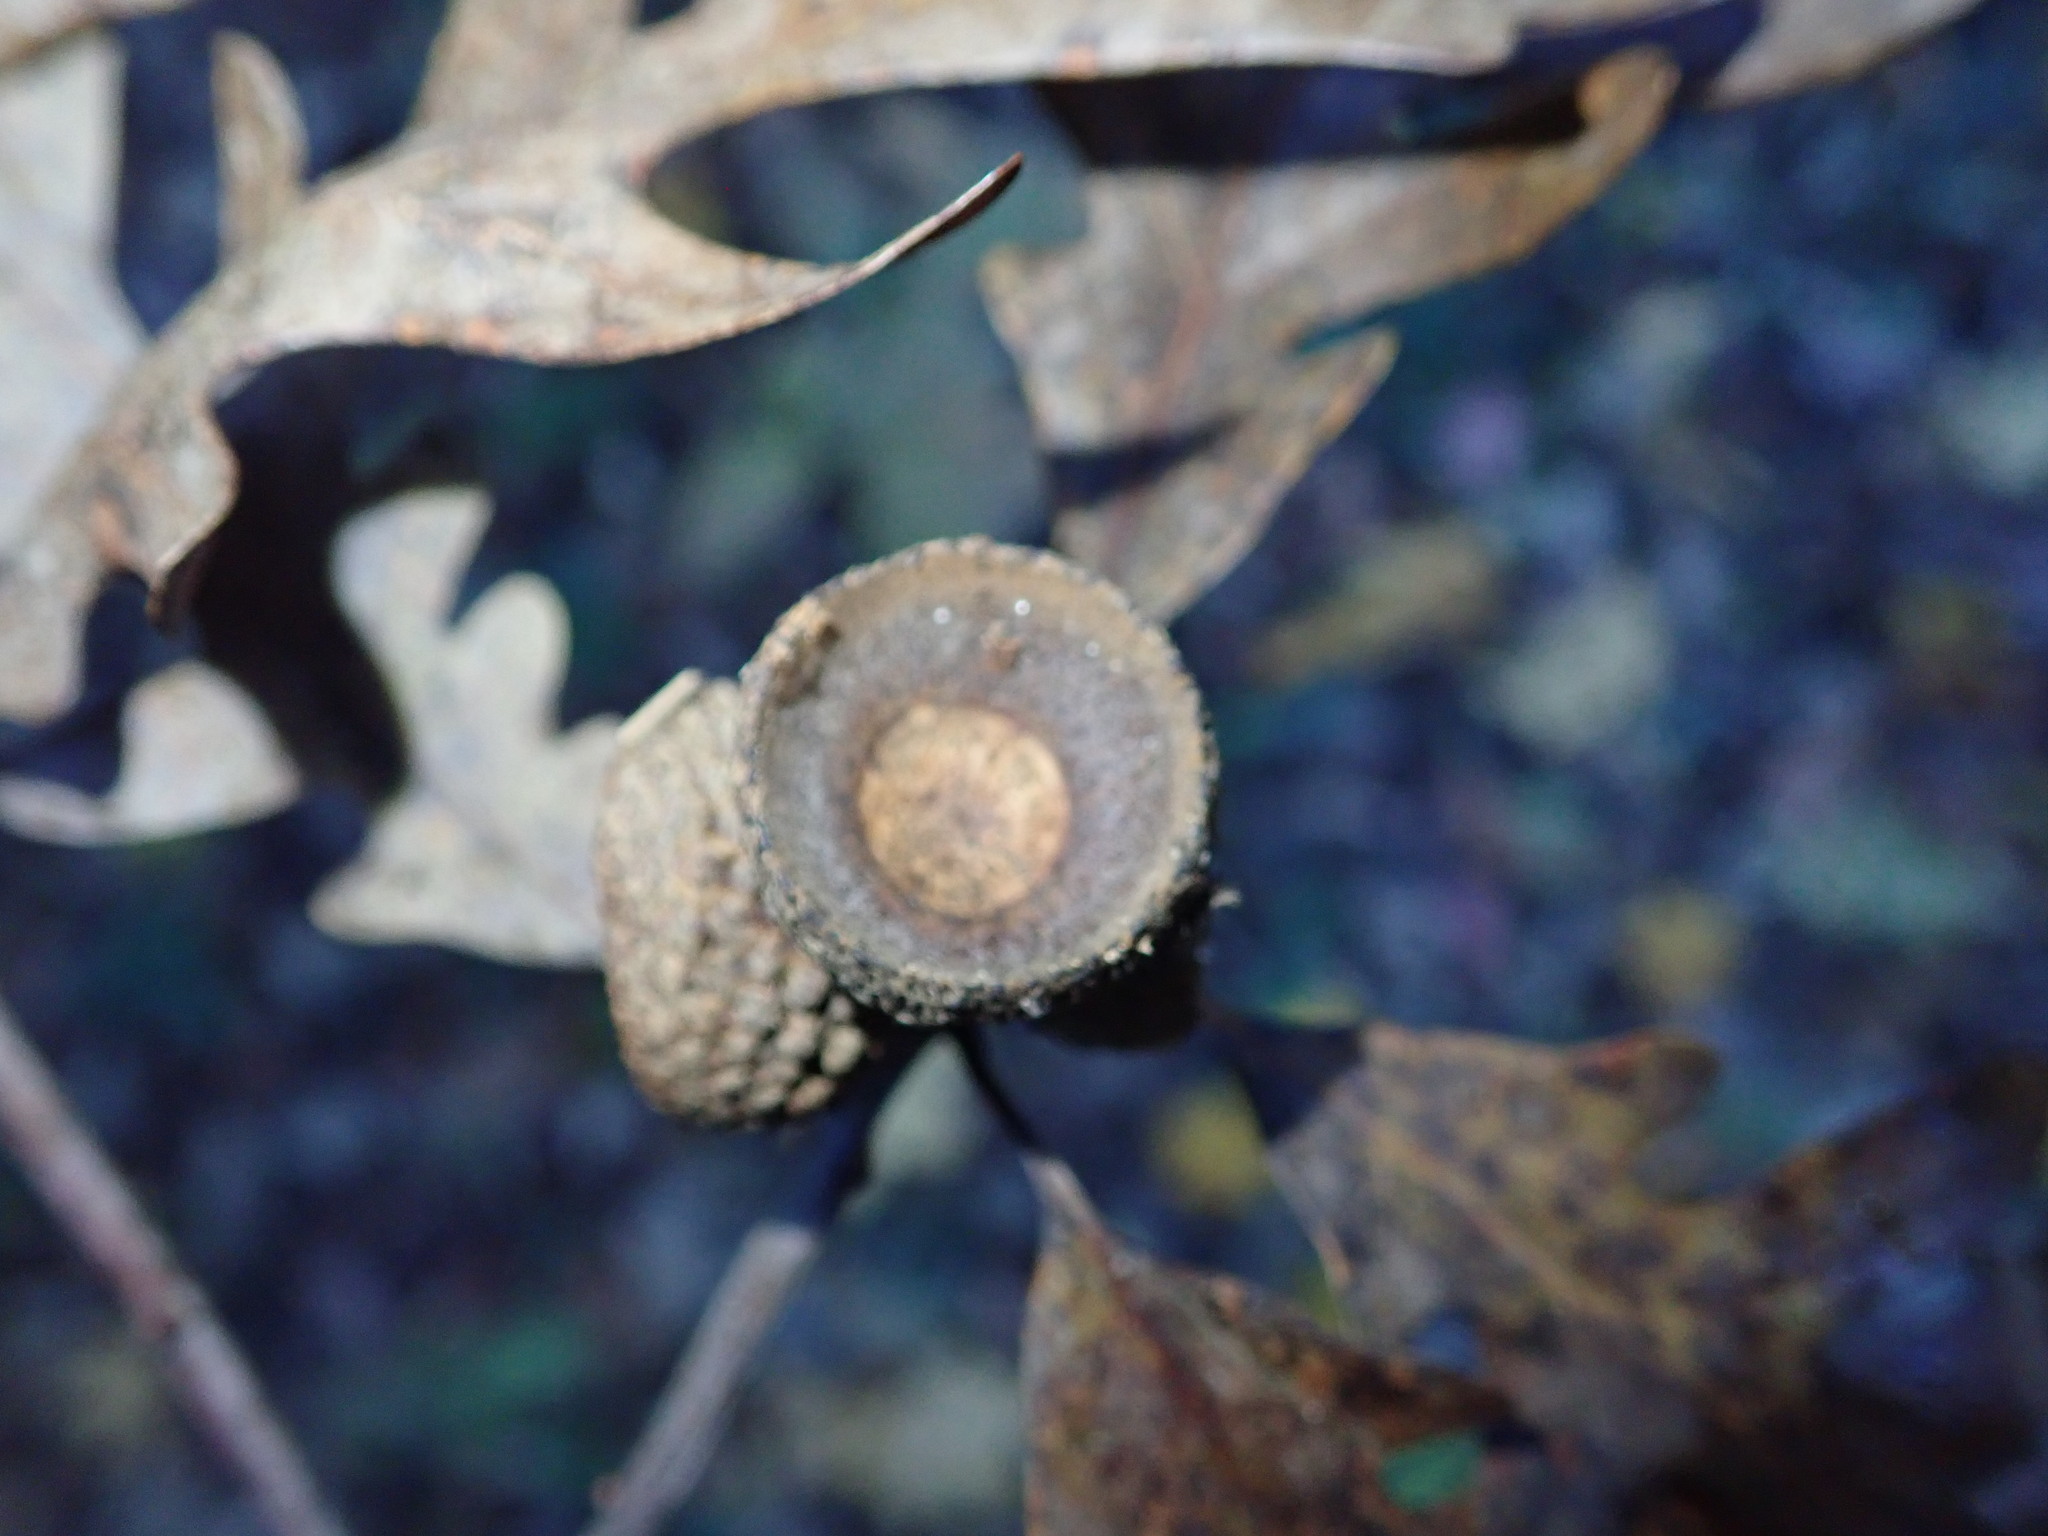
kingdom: Plantae
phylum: Tracheophyta
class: Magnoliopsida
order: Fagales
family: Fagaceae
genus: Quercus
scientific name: Quercus alba
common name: White oak
